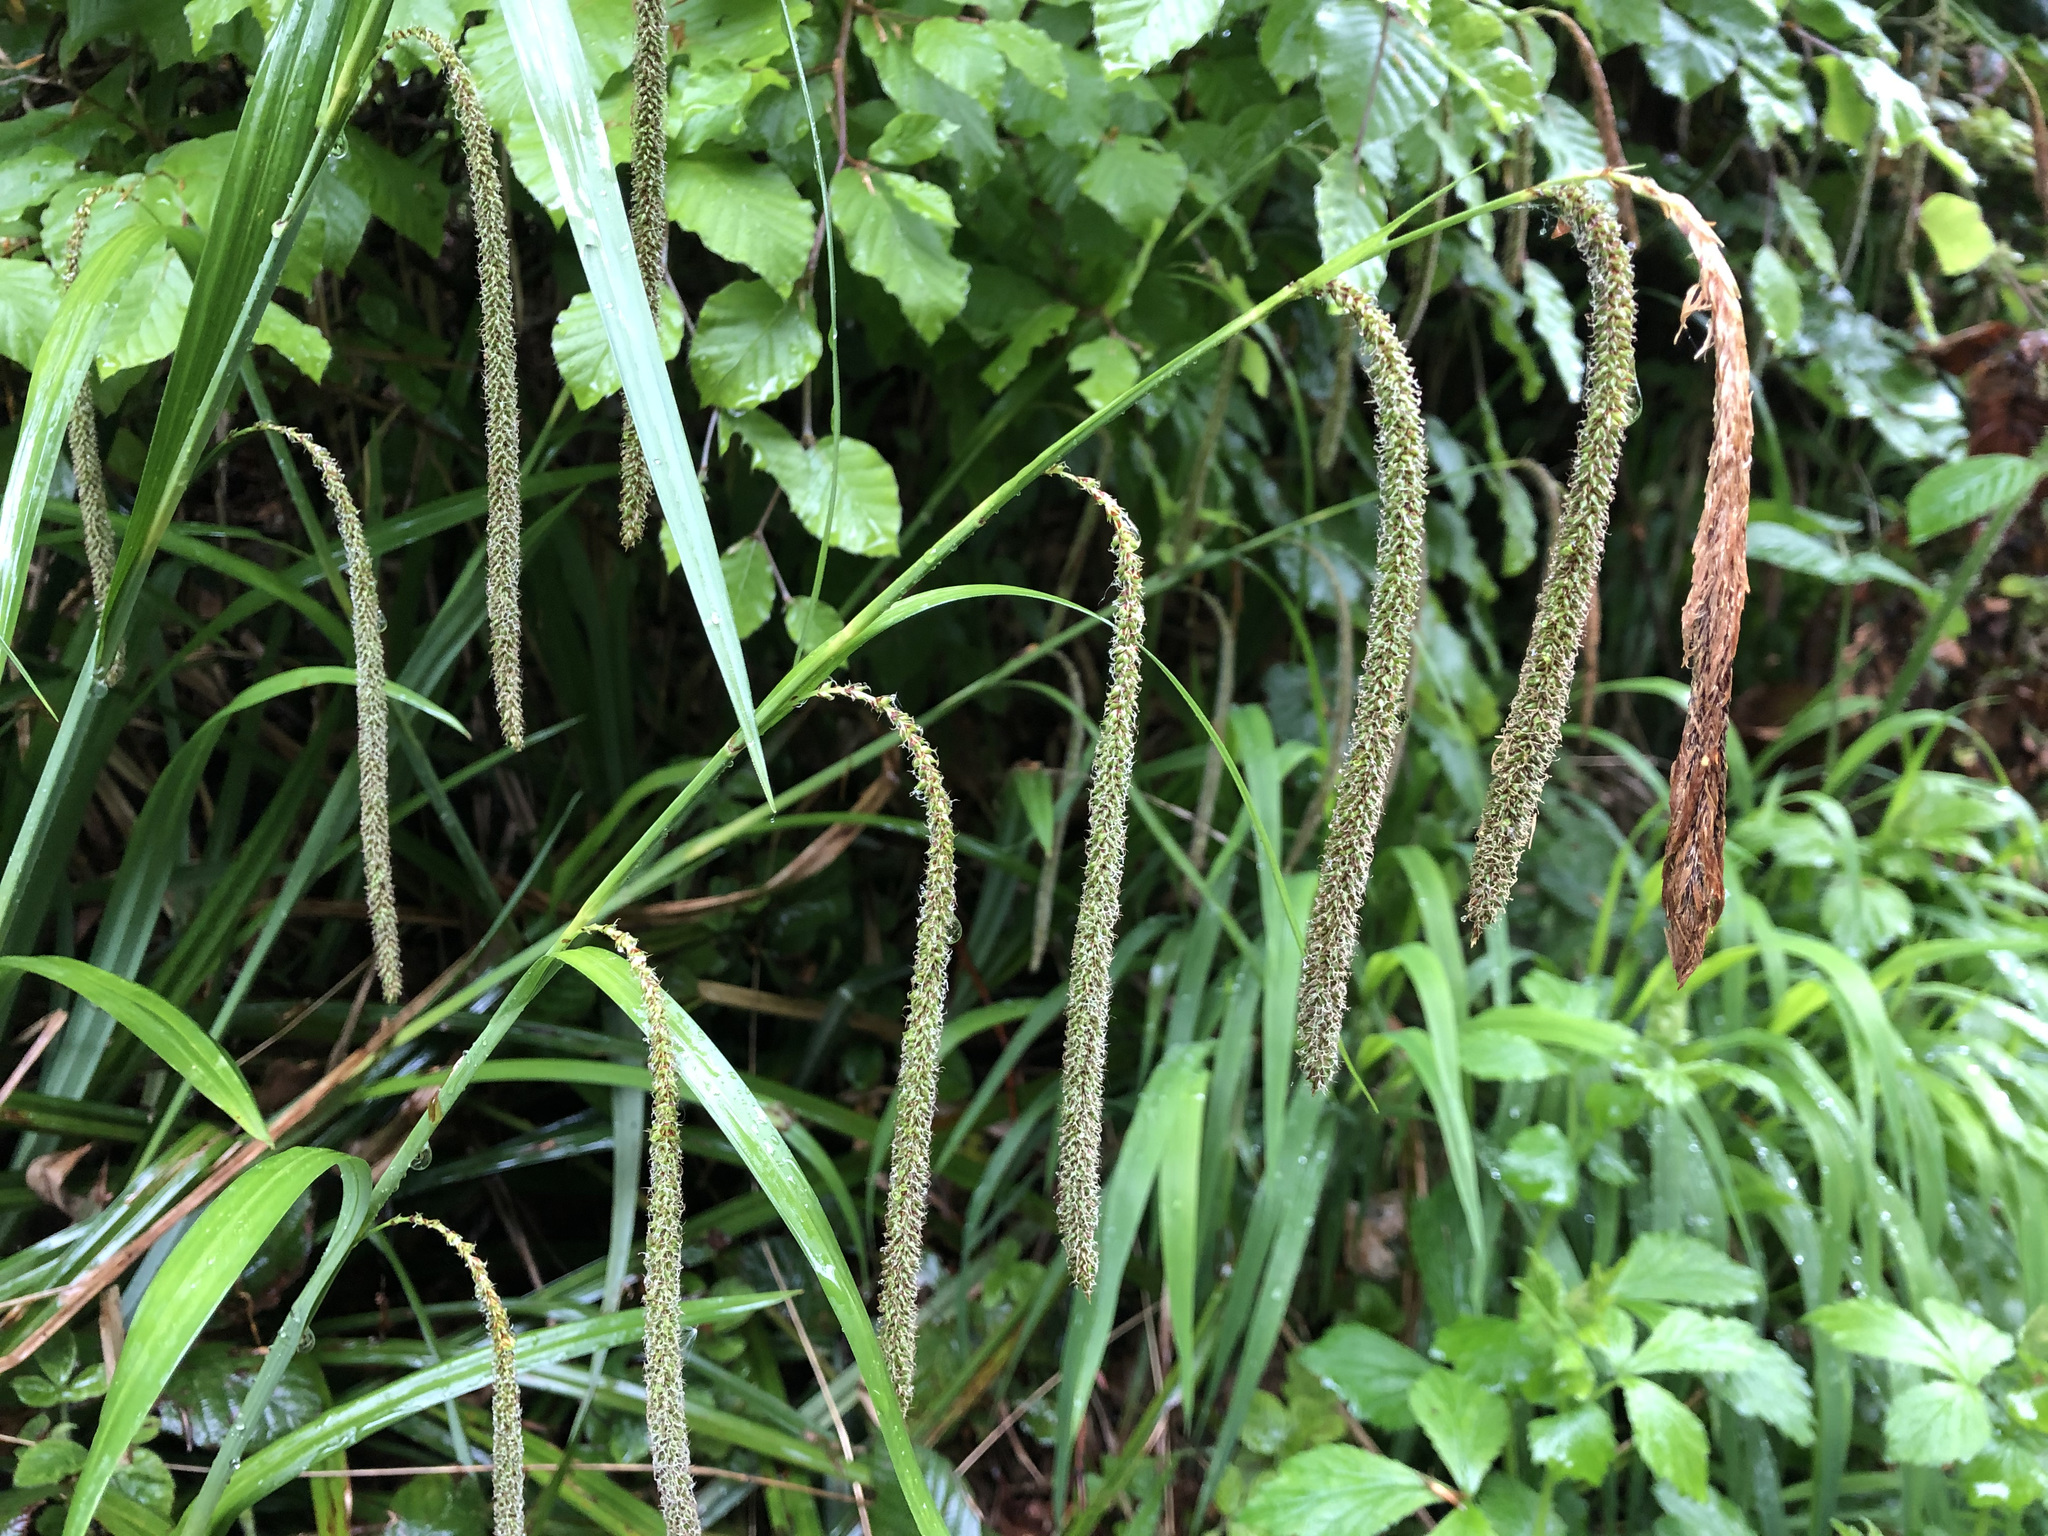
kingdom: Plantae
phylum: Tracheophyta
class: Liliopsida
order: Poales
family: Cyperaceae
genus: Carex
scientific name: Carex pendula
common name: Pendulous sedge
